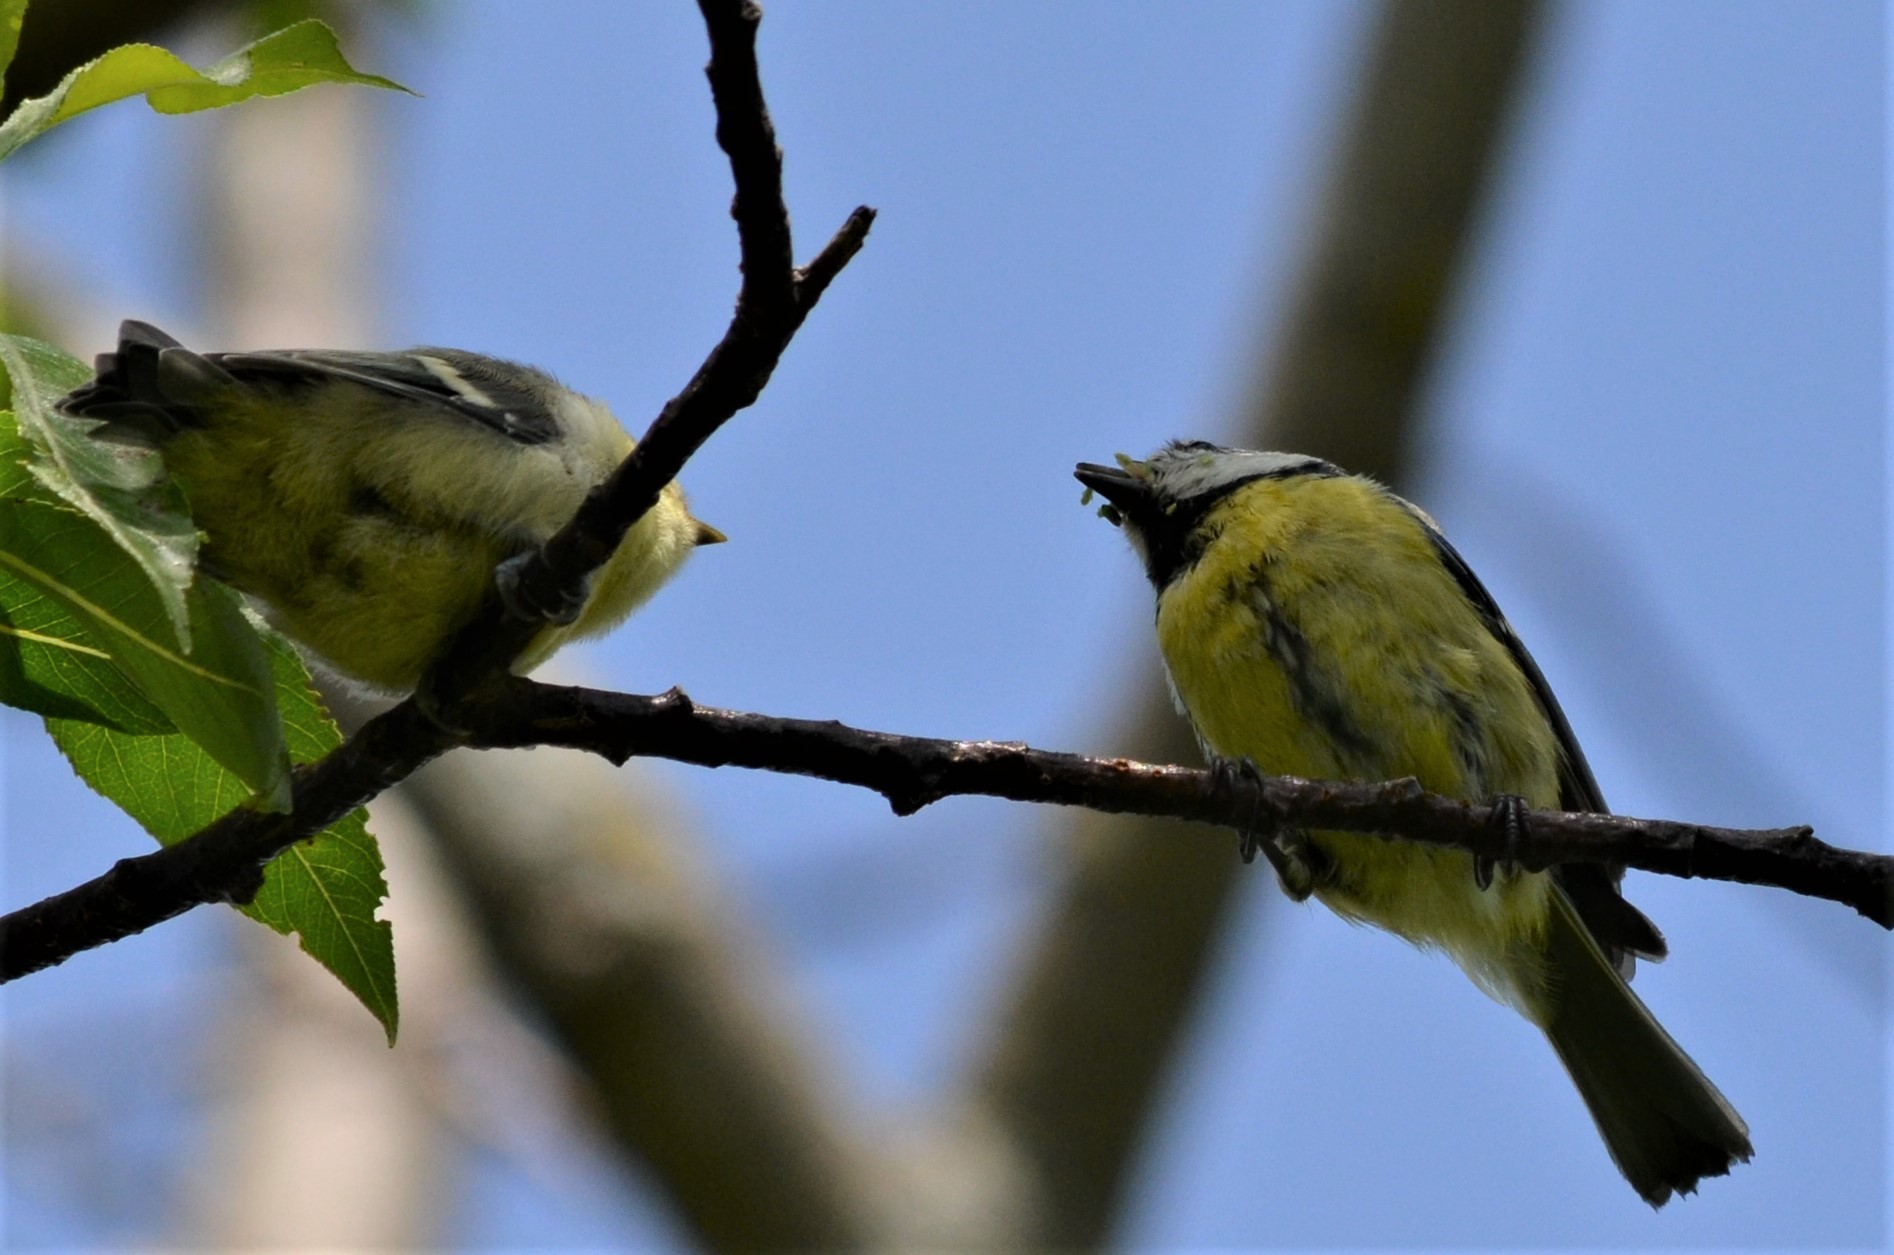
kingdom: Animalia
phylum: Chordata
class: Aves
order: Passeriformes
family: Paridae
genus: Cyanistes
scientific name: Cyanistes caeruleus
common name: Eurasian blue tit
